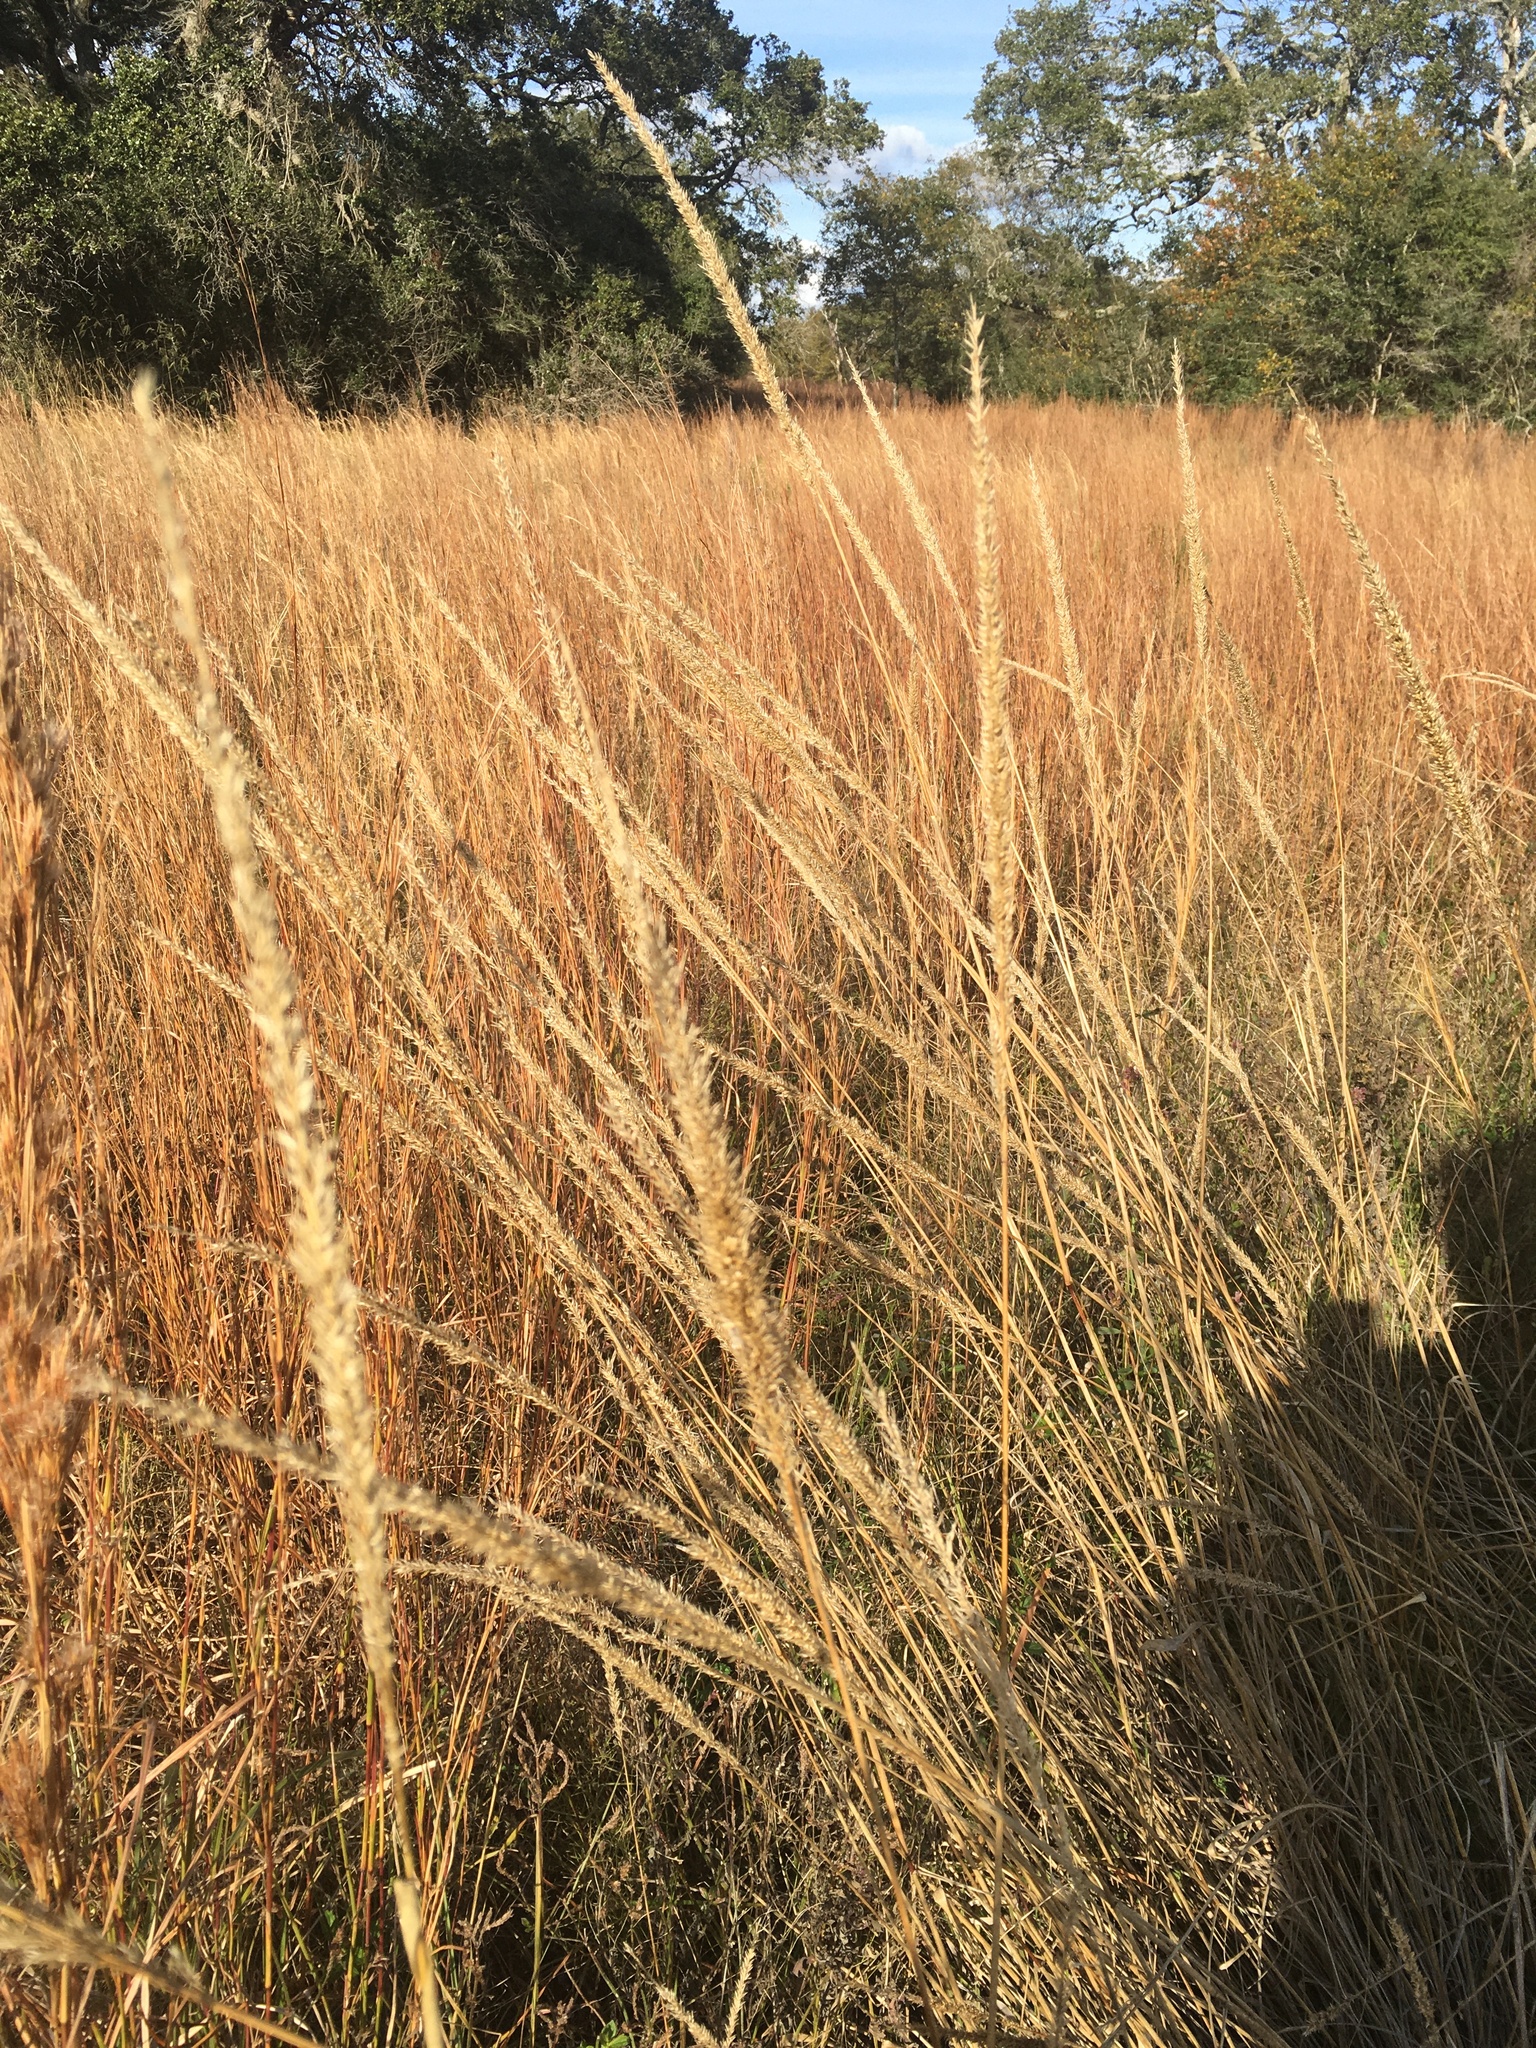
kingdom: Plantae
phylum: Tracheophyta
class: Liliopsida
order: Poales
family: Poaceae
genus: Tridens
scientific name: Tridens strictus
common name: Long-spike tridens
